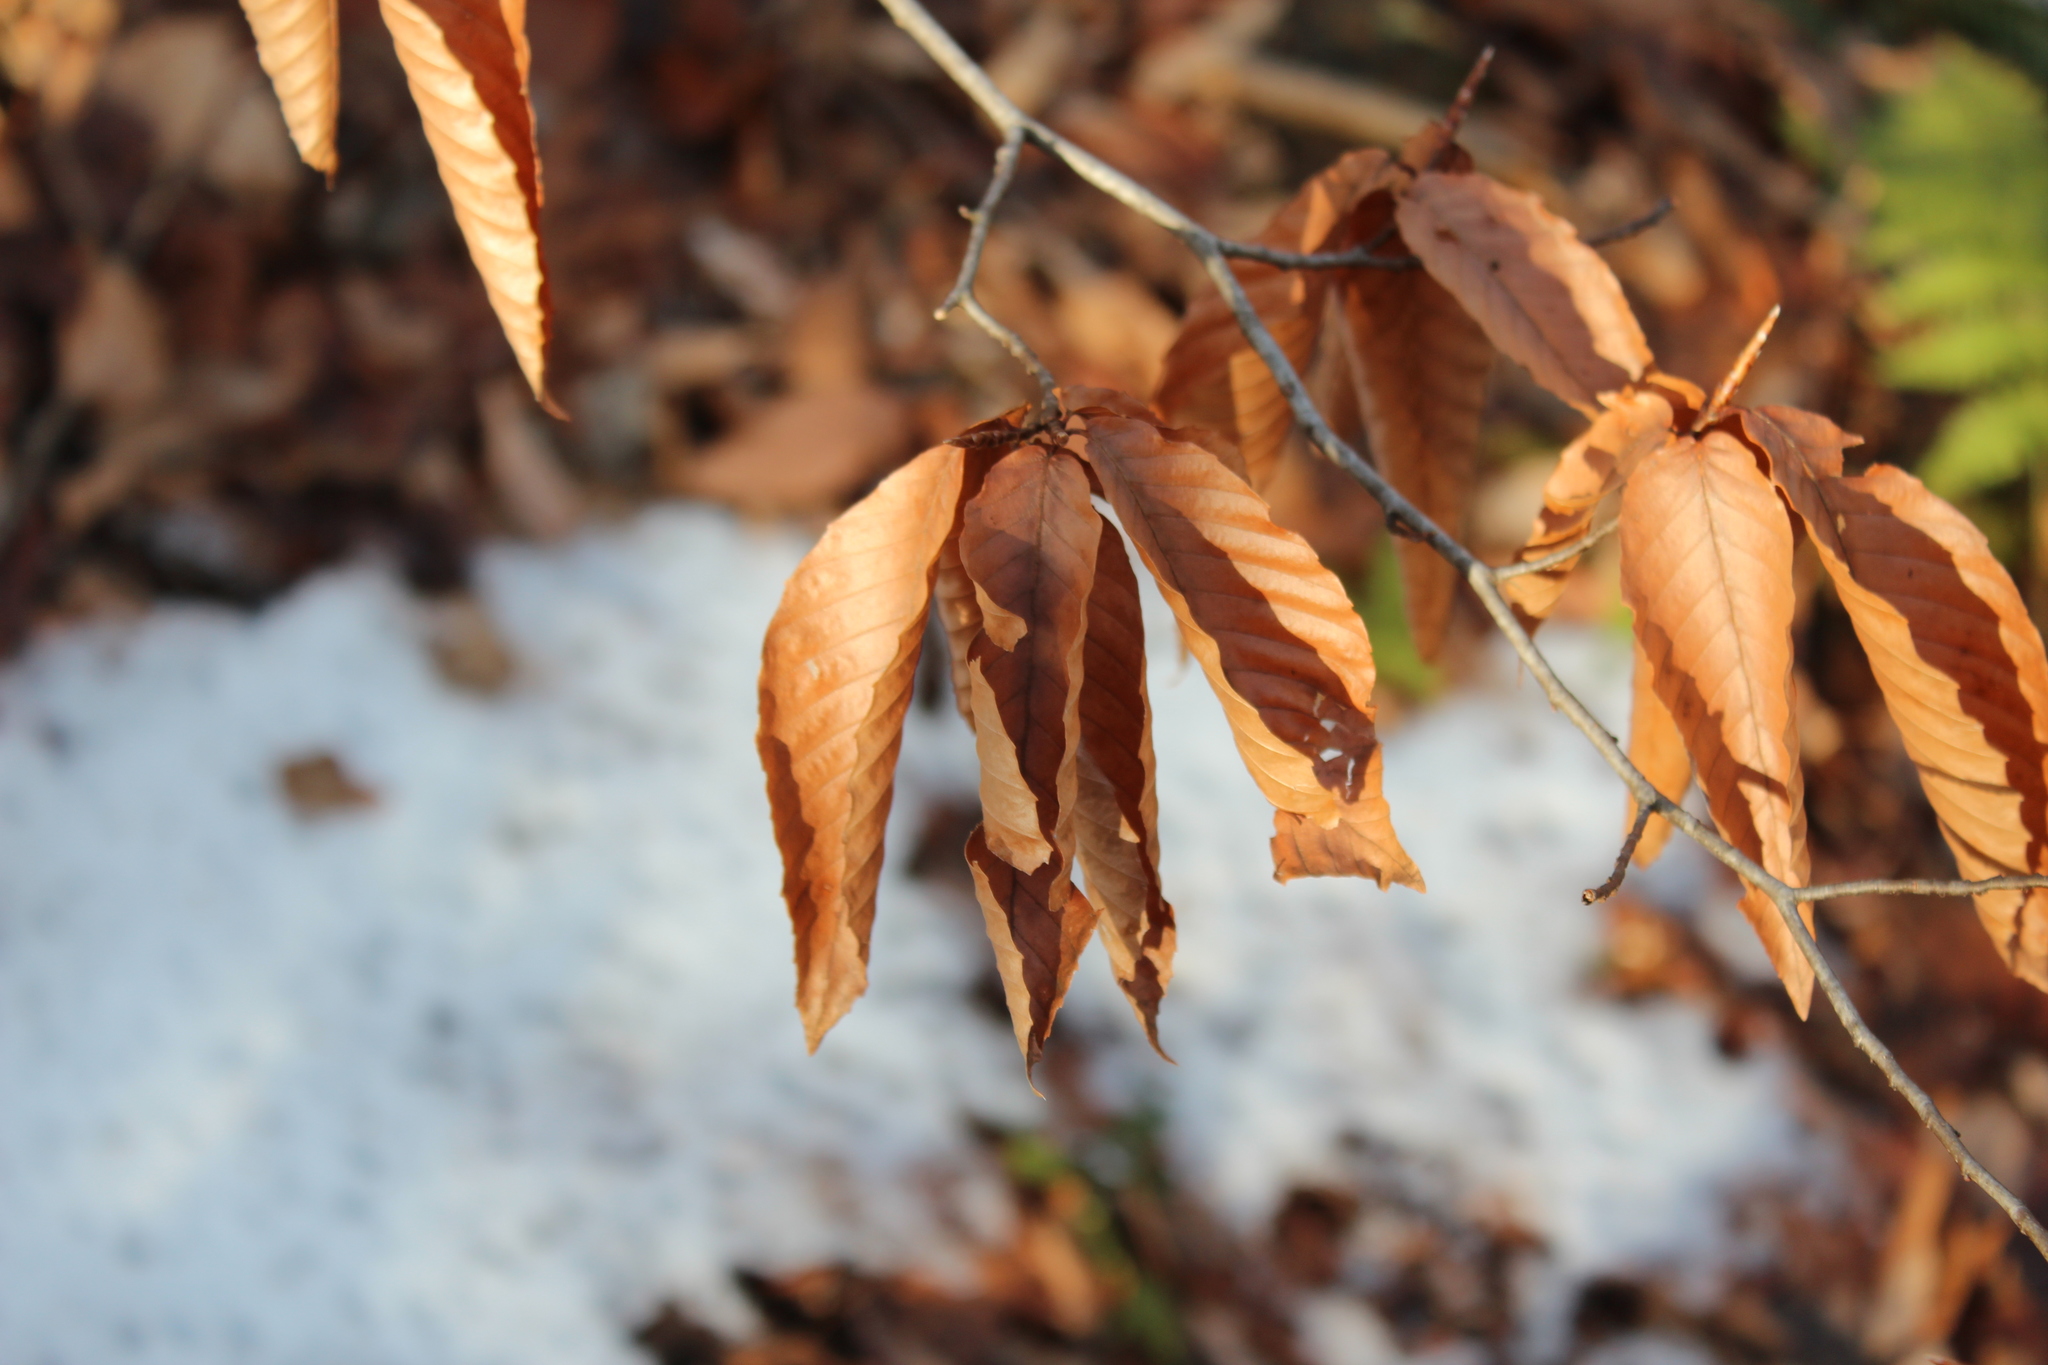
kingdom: Plantae
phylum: Tracheophyta
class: Magnoliopsida
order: Fagales
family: Fagaceae
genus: Fagus
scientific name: Fagus grandifolia
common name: American beech
